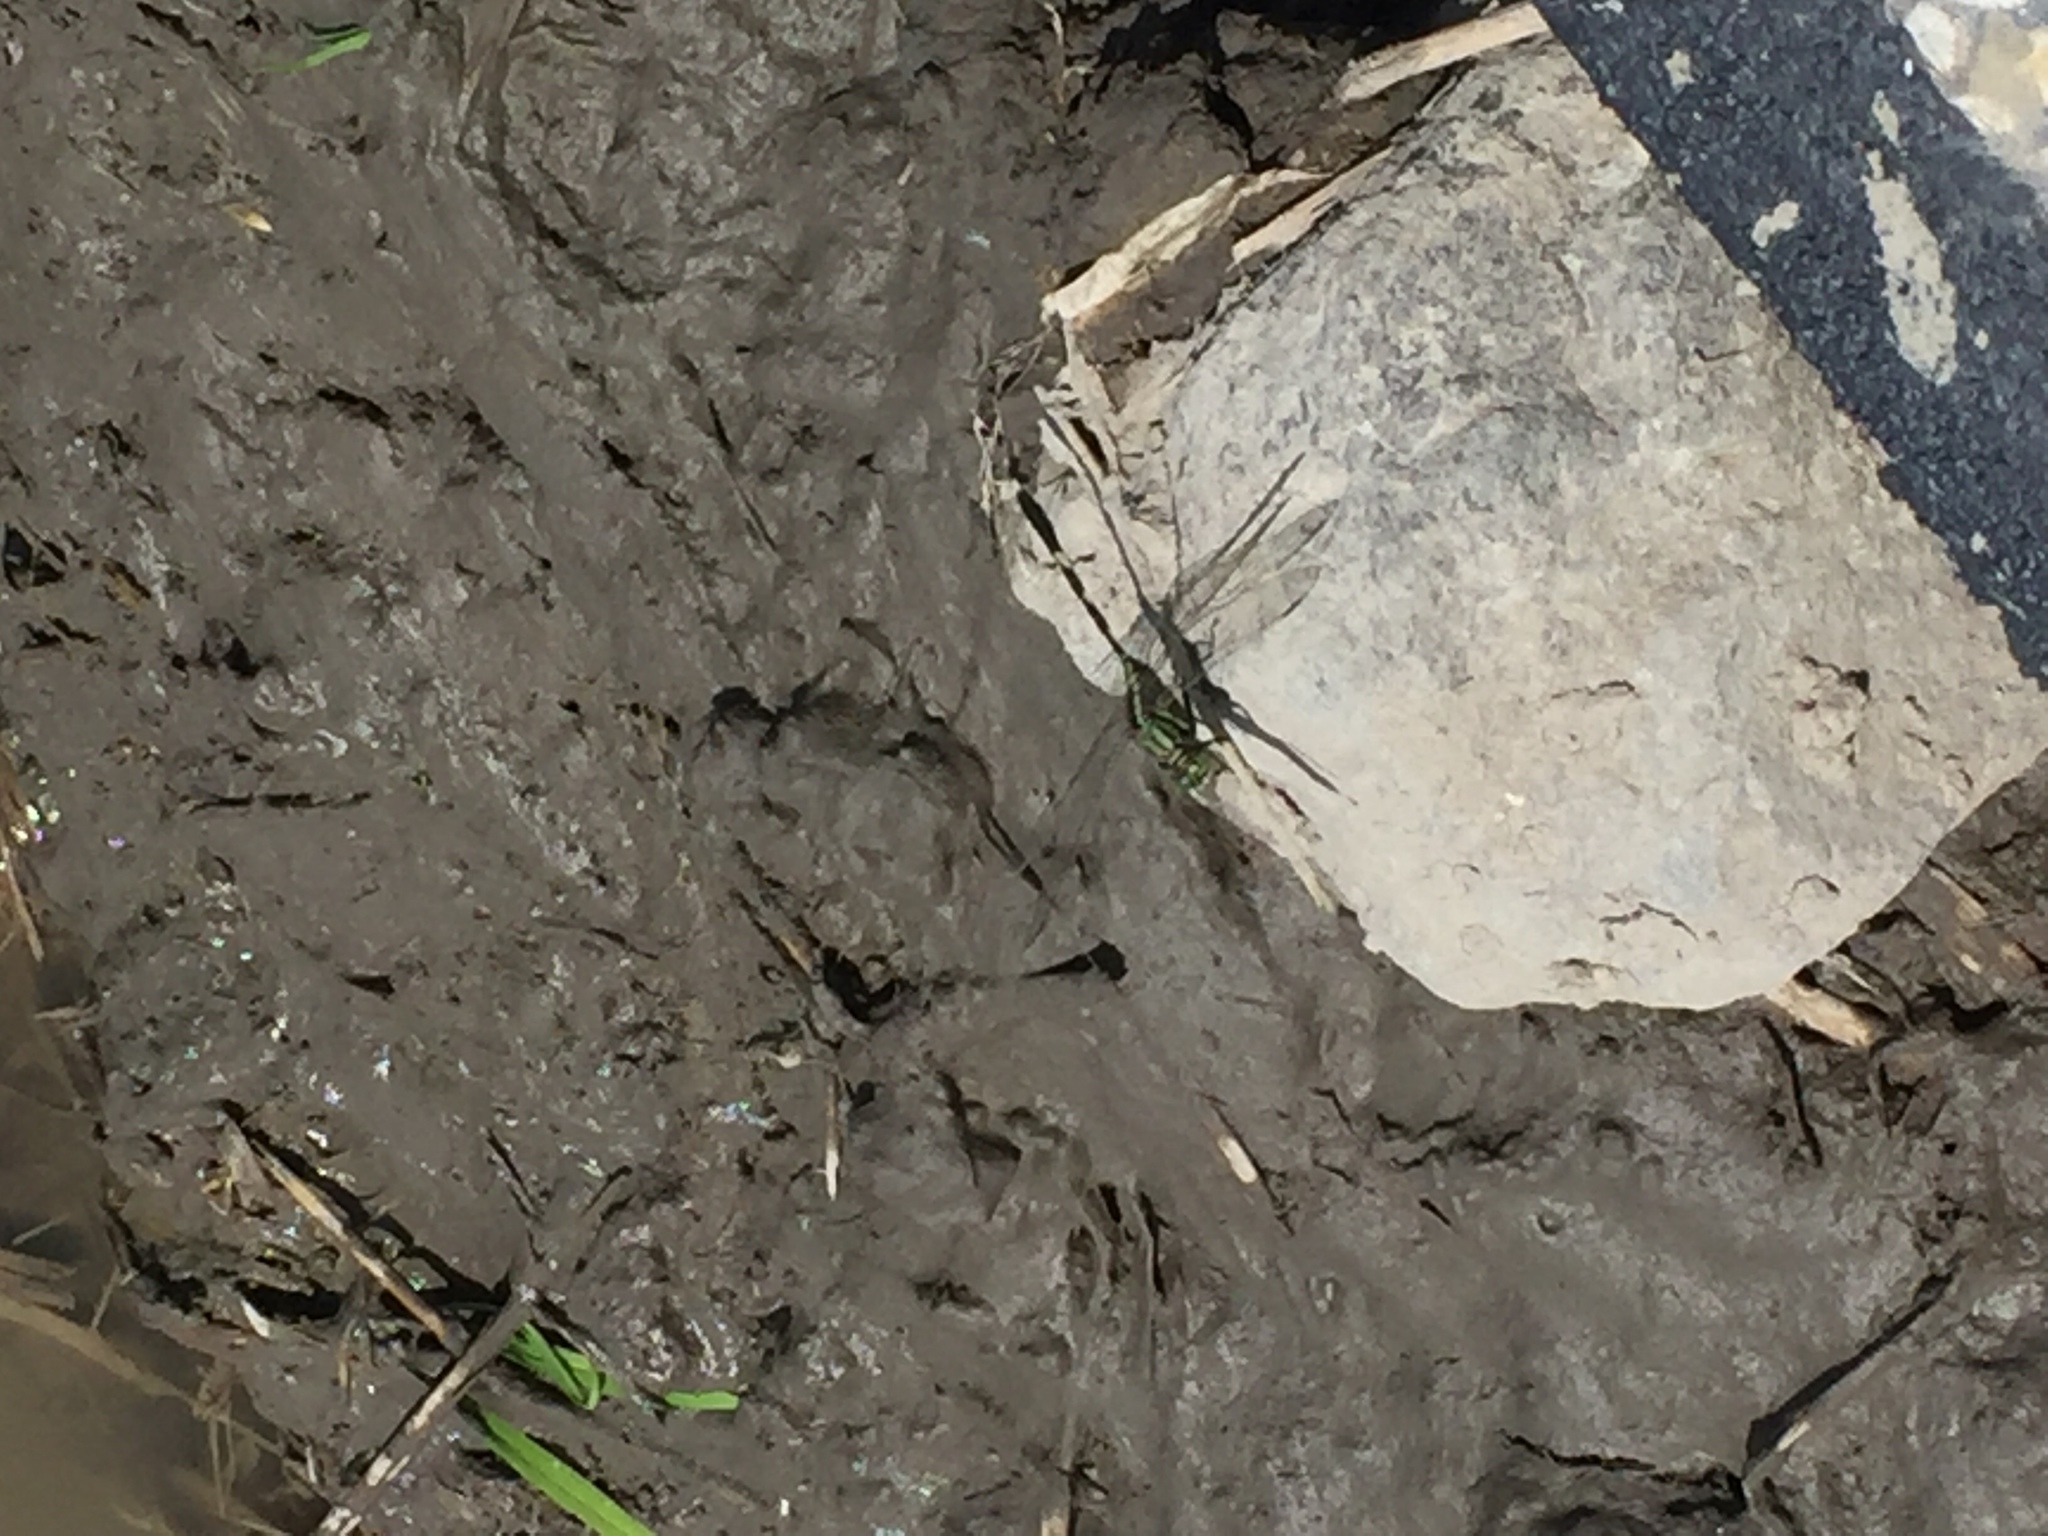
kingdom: Animalia
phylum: Arthropoda
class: Insecta
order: Odonata
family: Libellulidae
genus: Orthetrum
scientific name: Orthetrum sabina
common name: Slender skimmer
